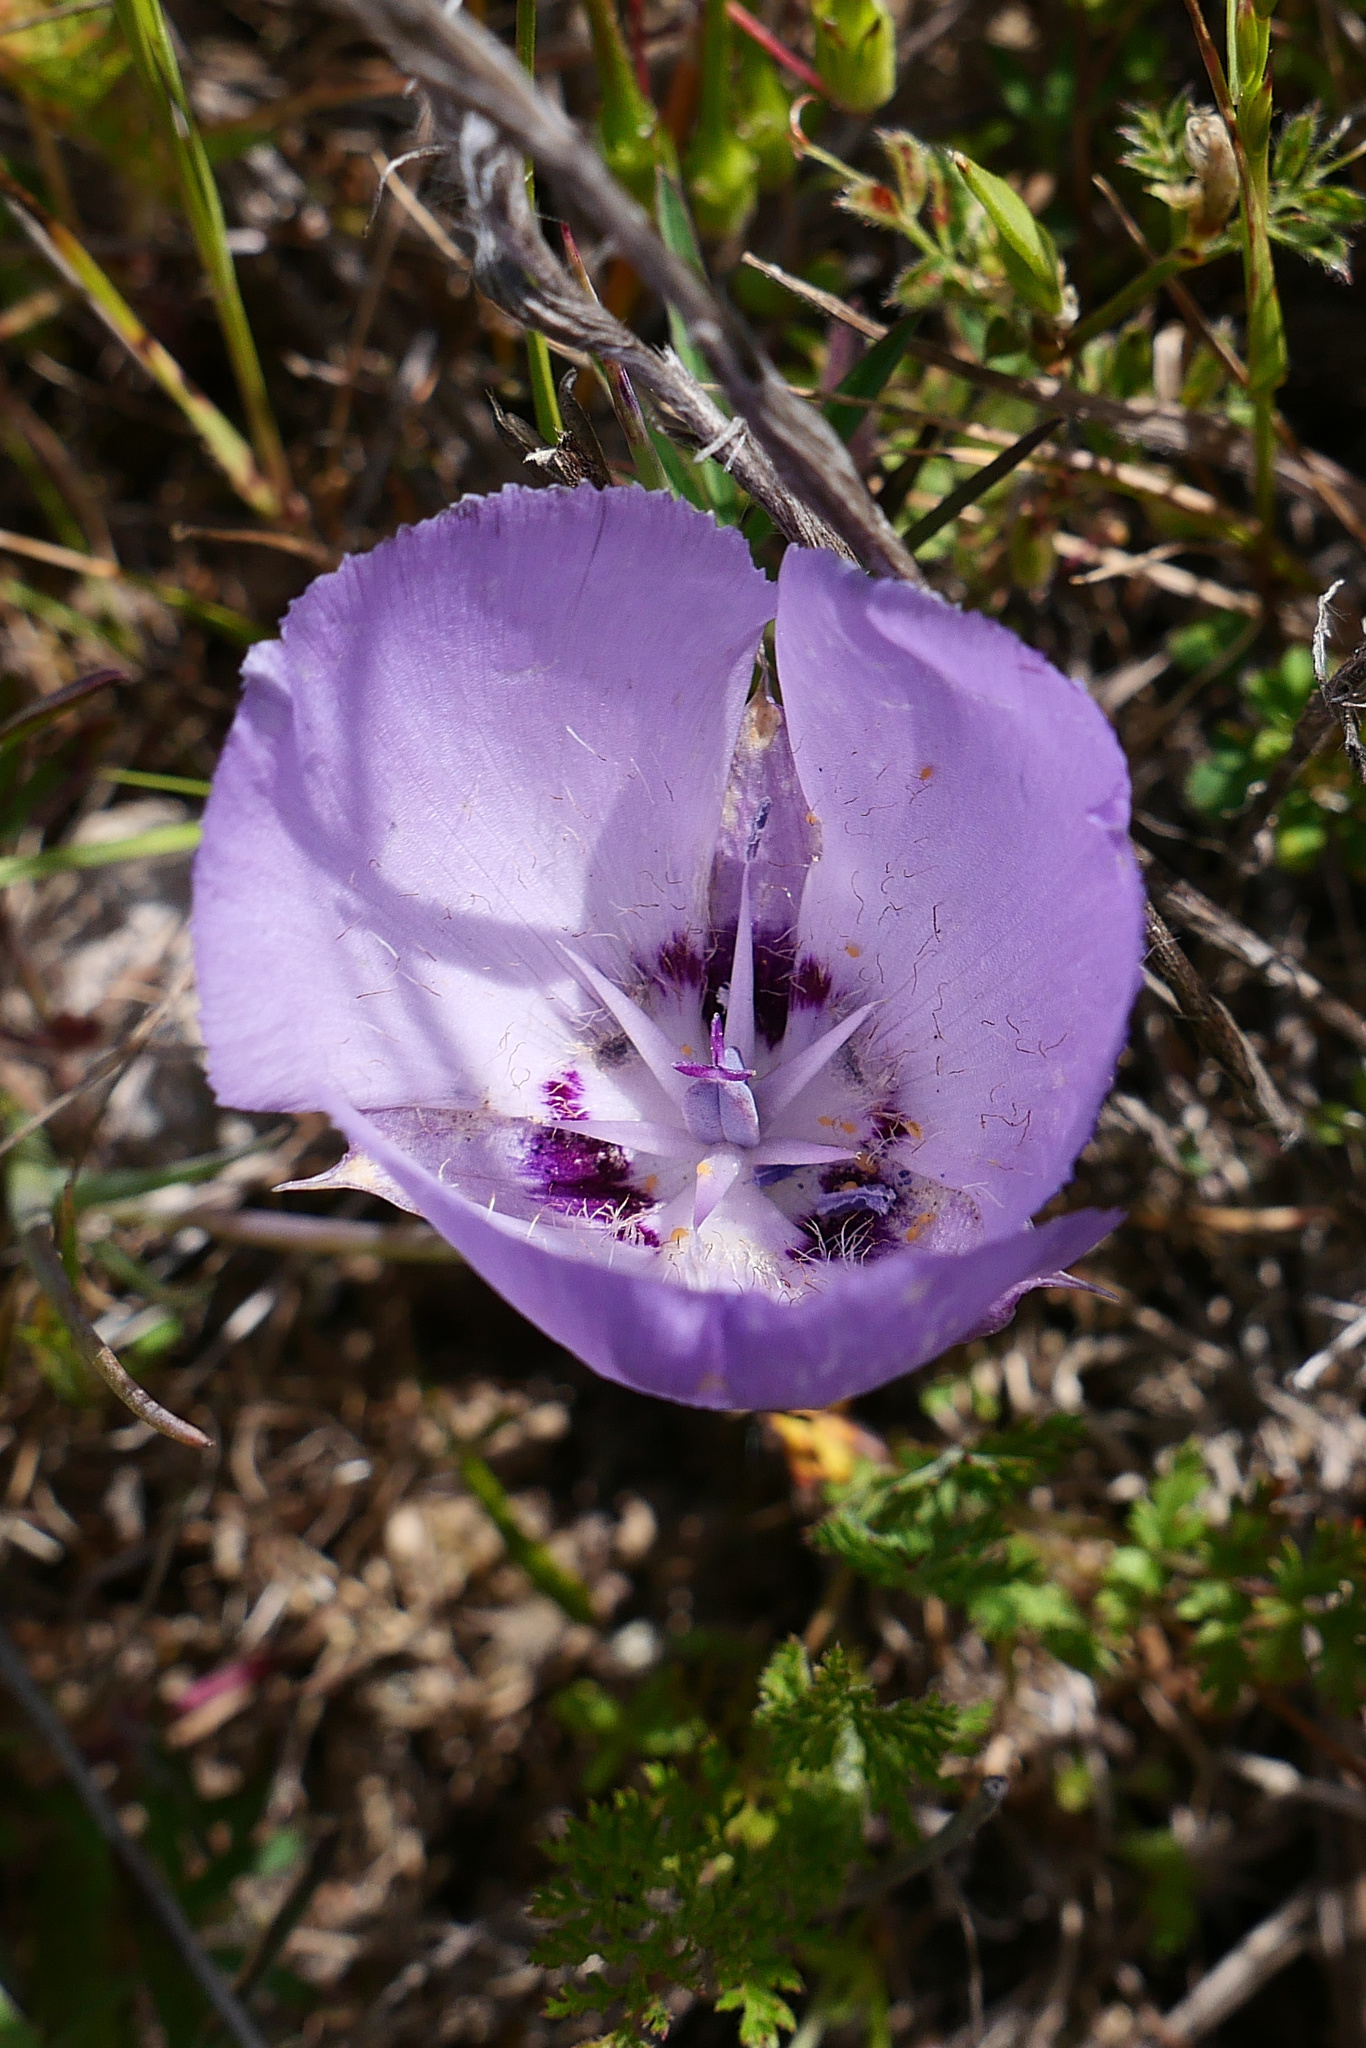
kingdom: Plantae
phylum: Tracheophyta
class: Liliopsida
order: Liliales
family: Liliaceae
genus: Calochortus
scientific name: Calochortus uniflorus
